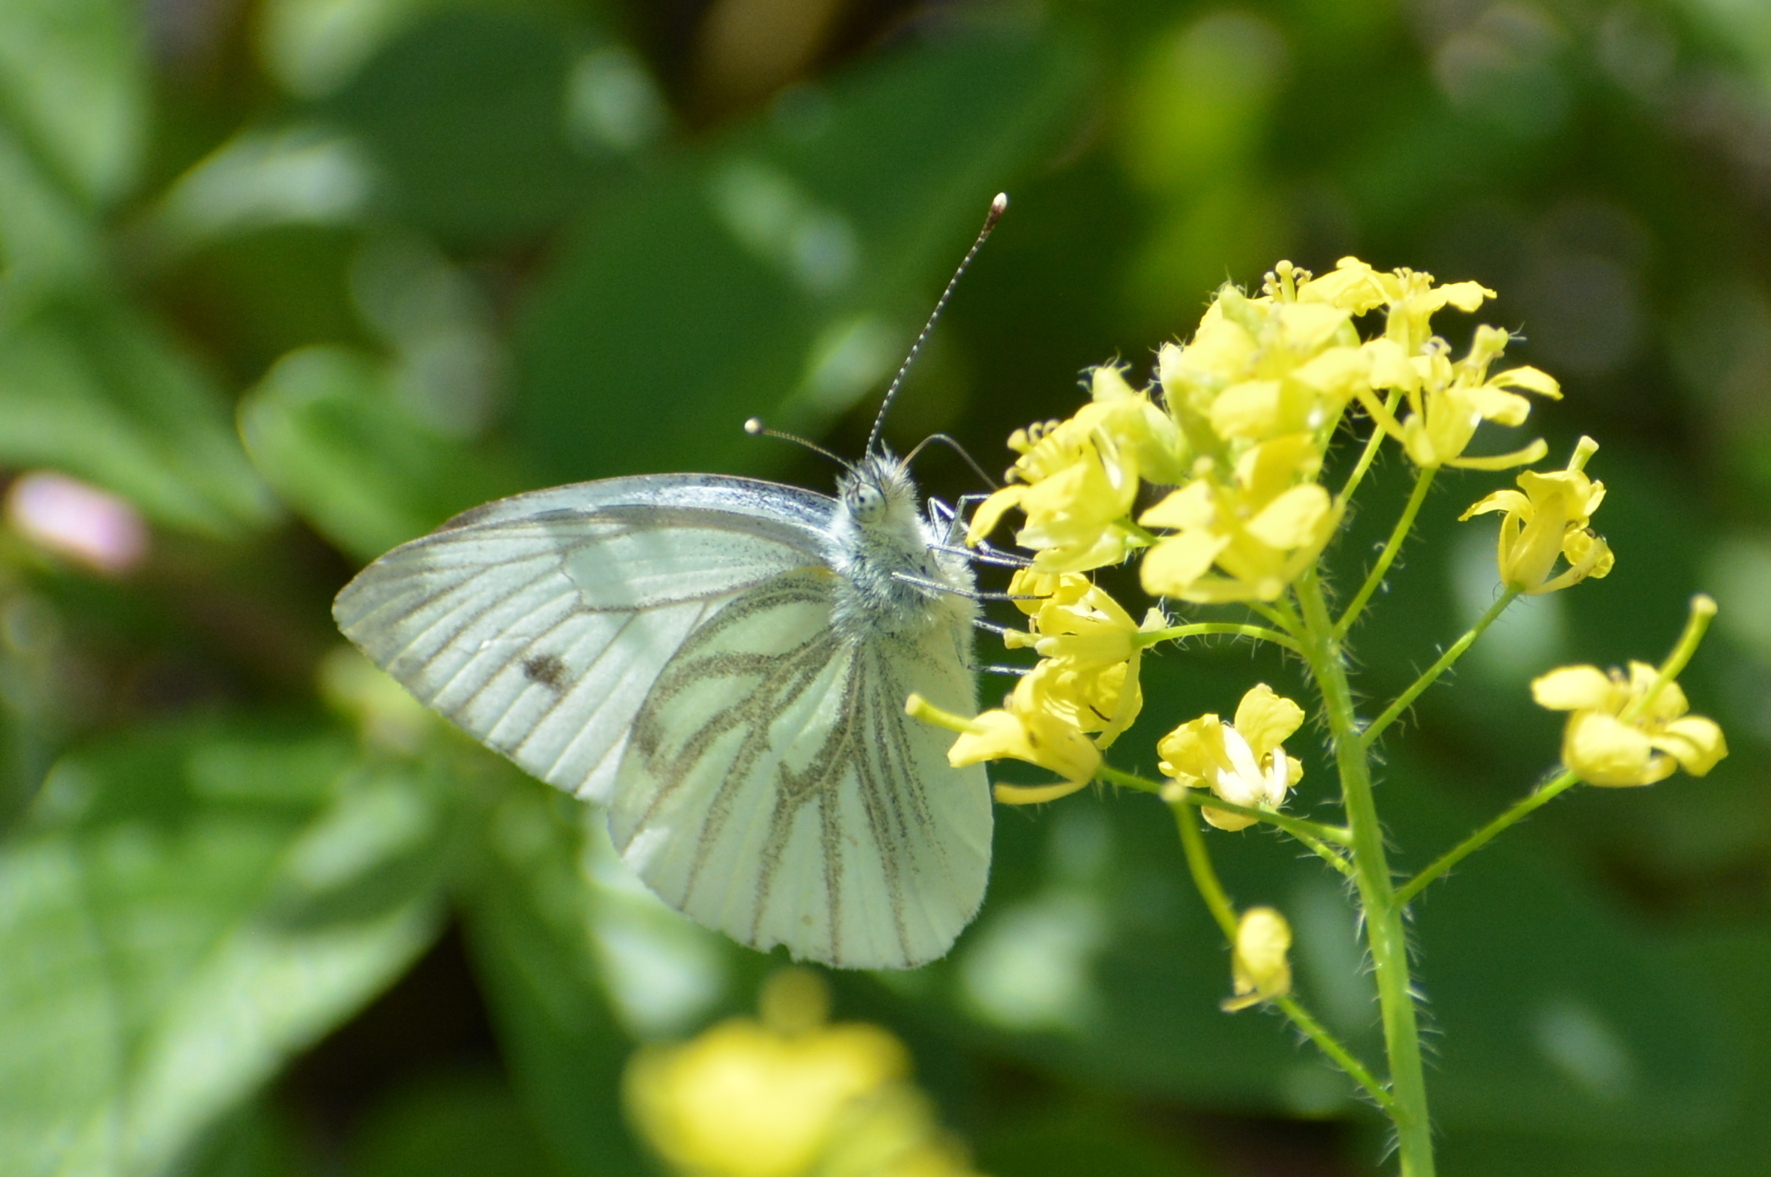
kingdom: Animalia
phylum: Arthropoda
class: Insecta
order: Lepidoptera
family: Pieridae
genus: Pieris
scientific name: Pieris napi
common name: Green-veined white
